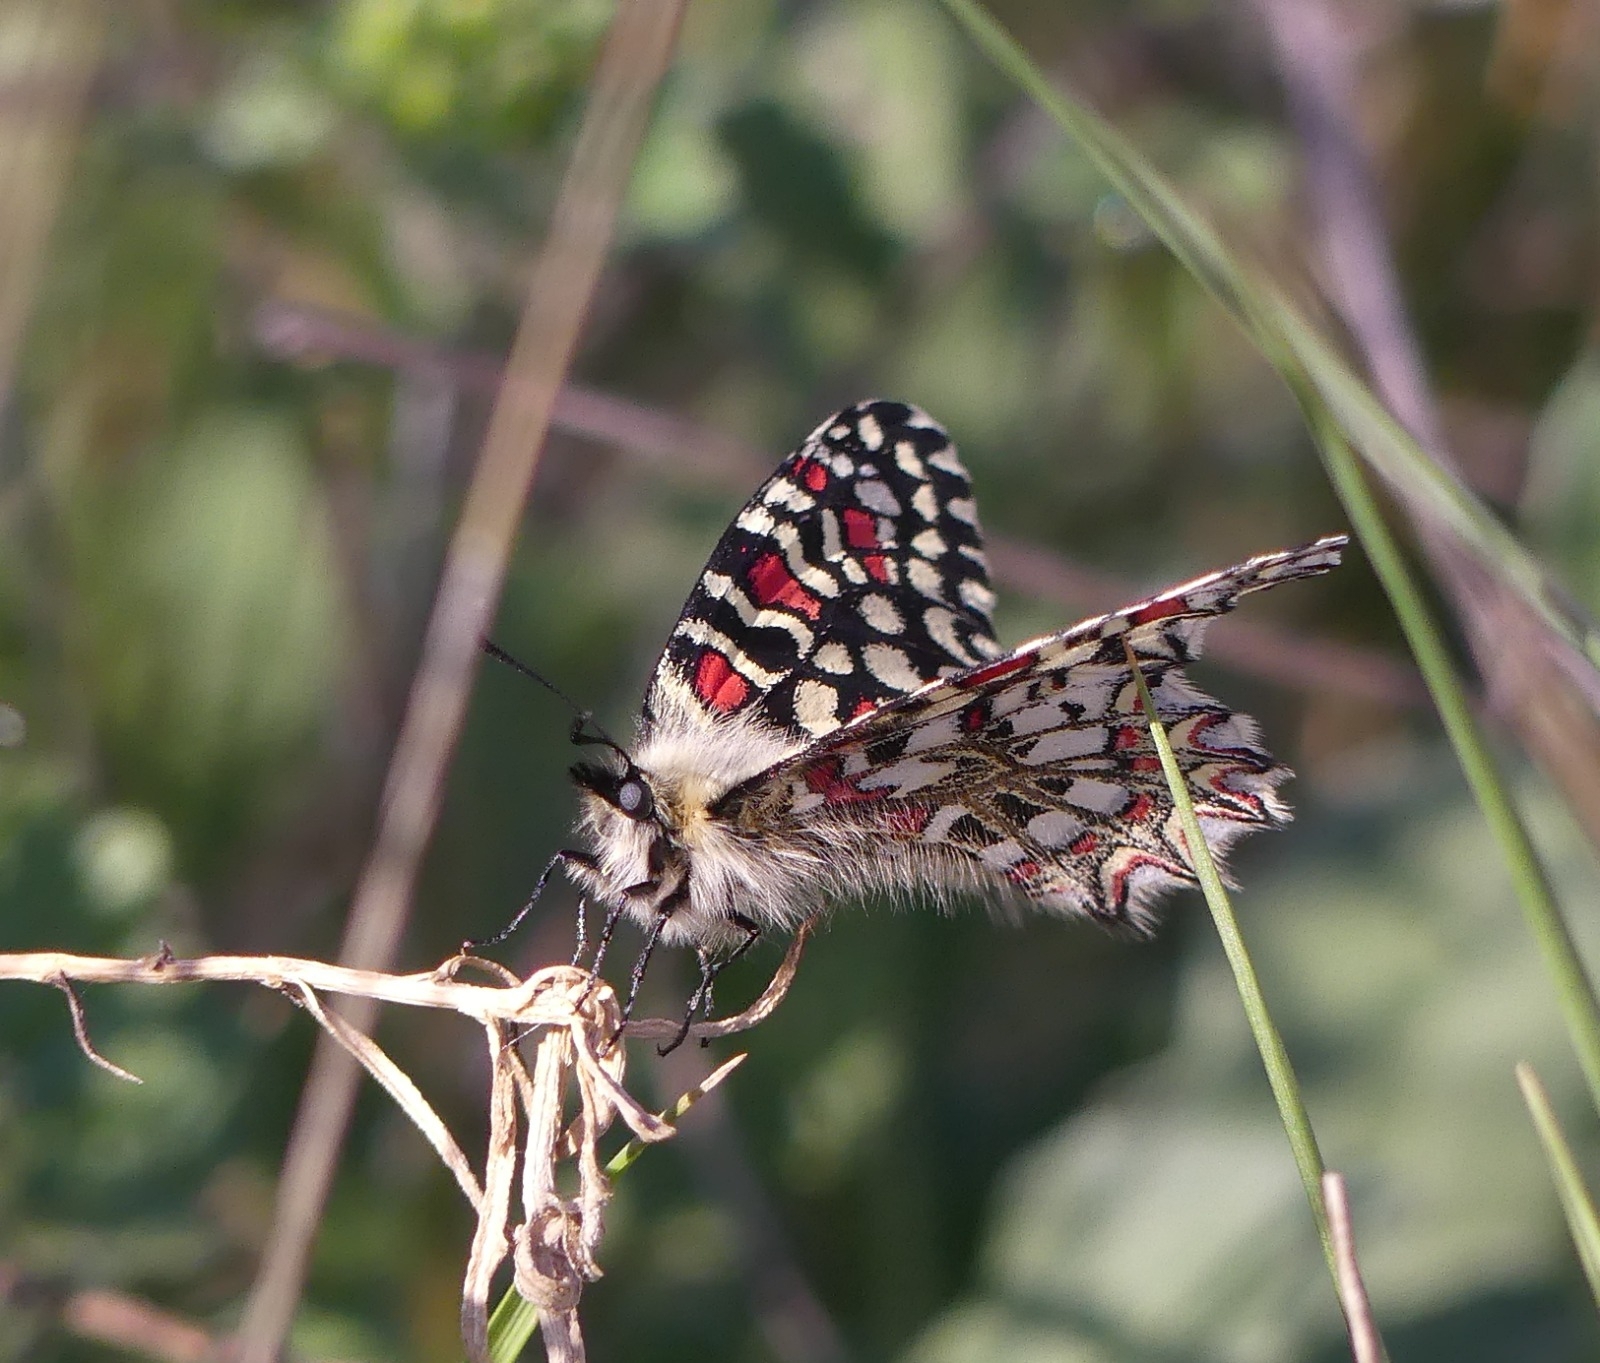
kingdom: Animalia
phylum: Arthropoda
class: Insecta
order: Lepidoptera
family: Papilionidae
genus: Zerynthia
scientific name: Zerynthia rumina
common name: Spanish festoon
